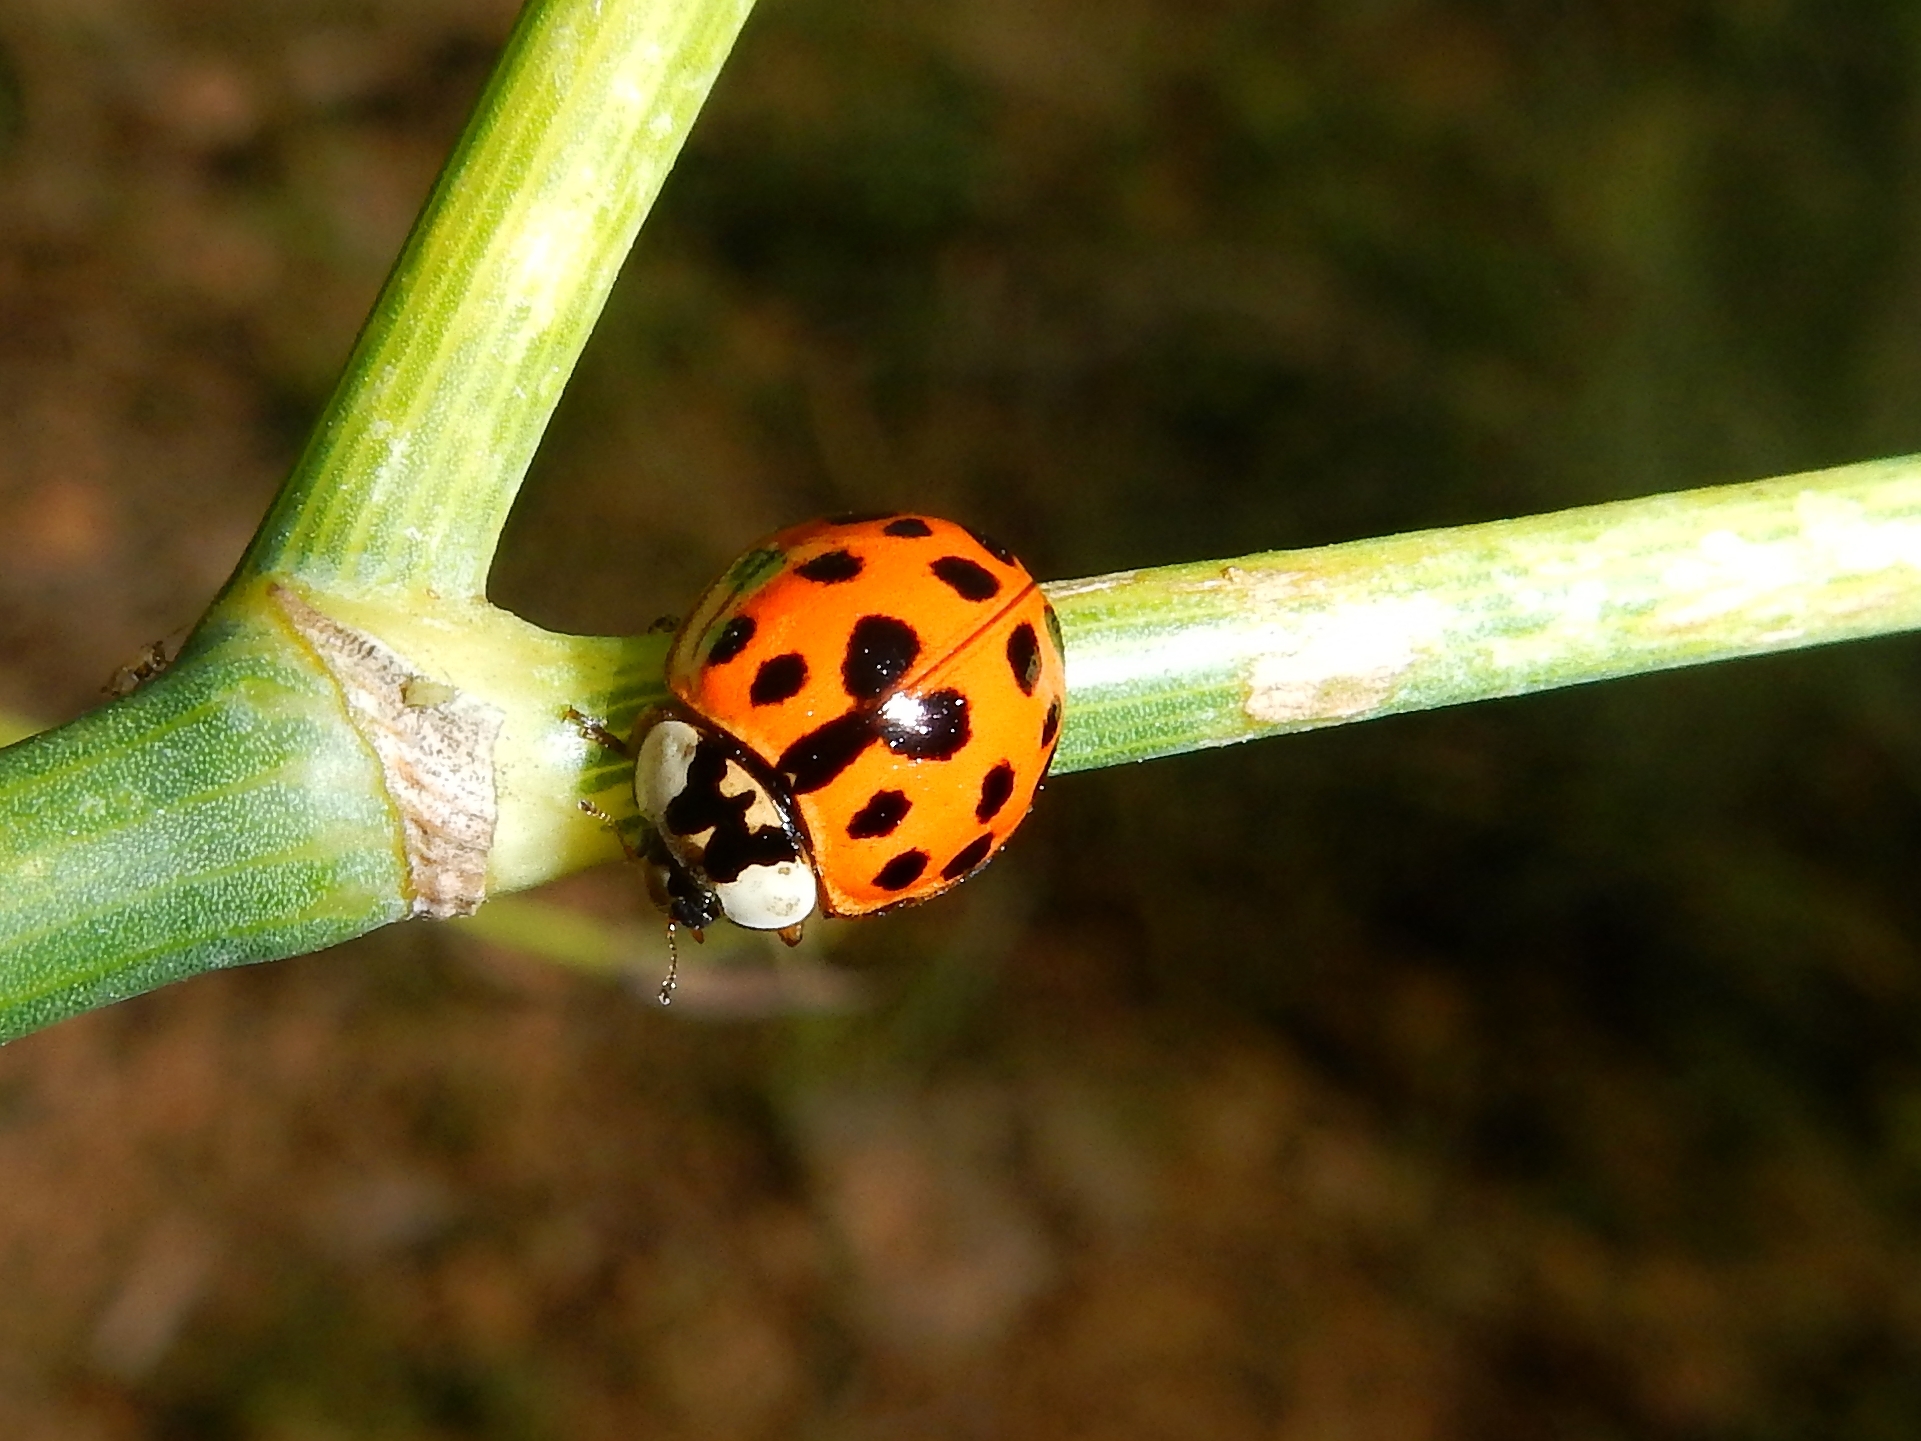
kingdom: Animalia
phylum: Arthropoda
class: Insecta
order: Coleoptera
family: Coccinellidae
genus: Harmonia
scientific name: Harmonia axyridis
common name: Harlequin ladybird
